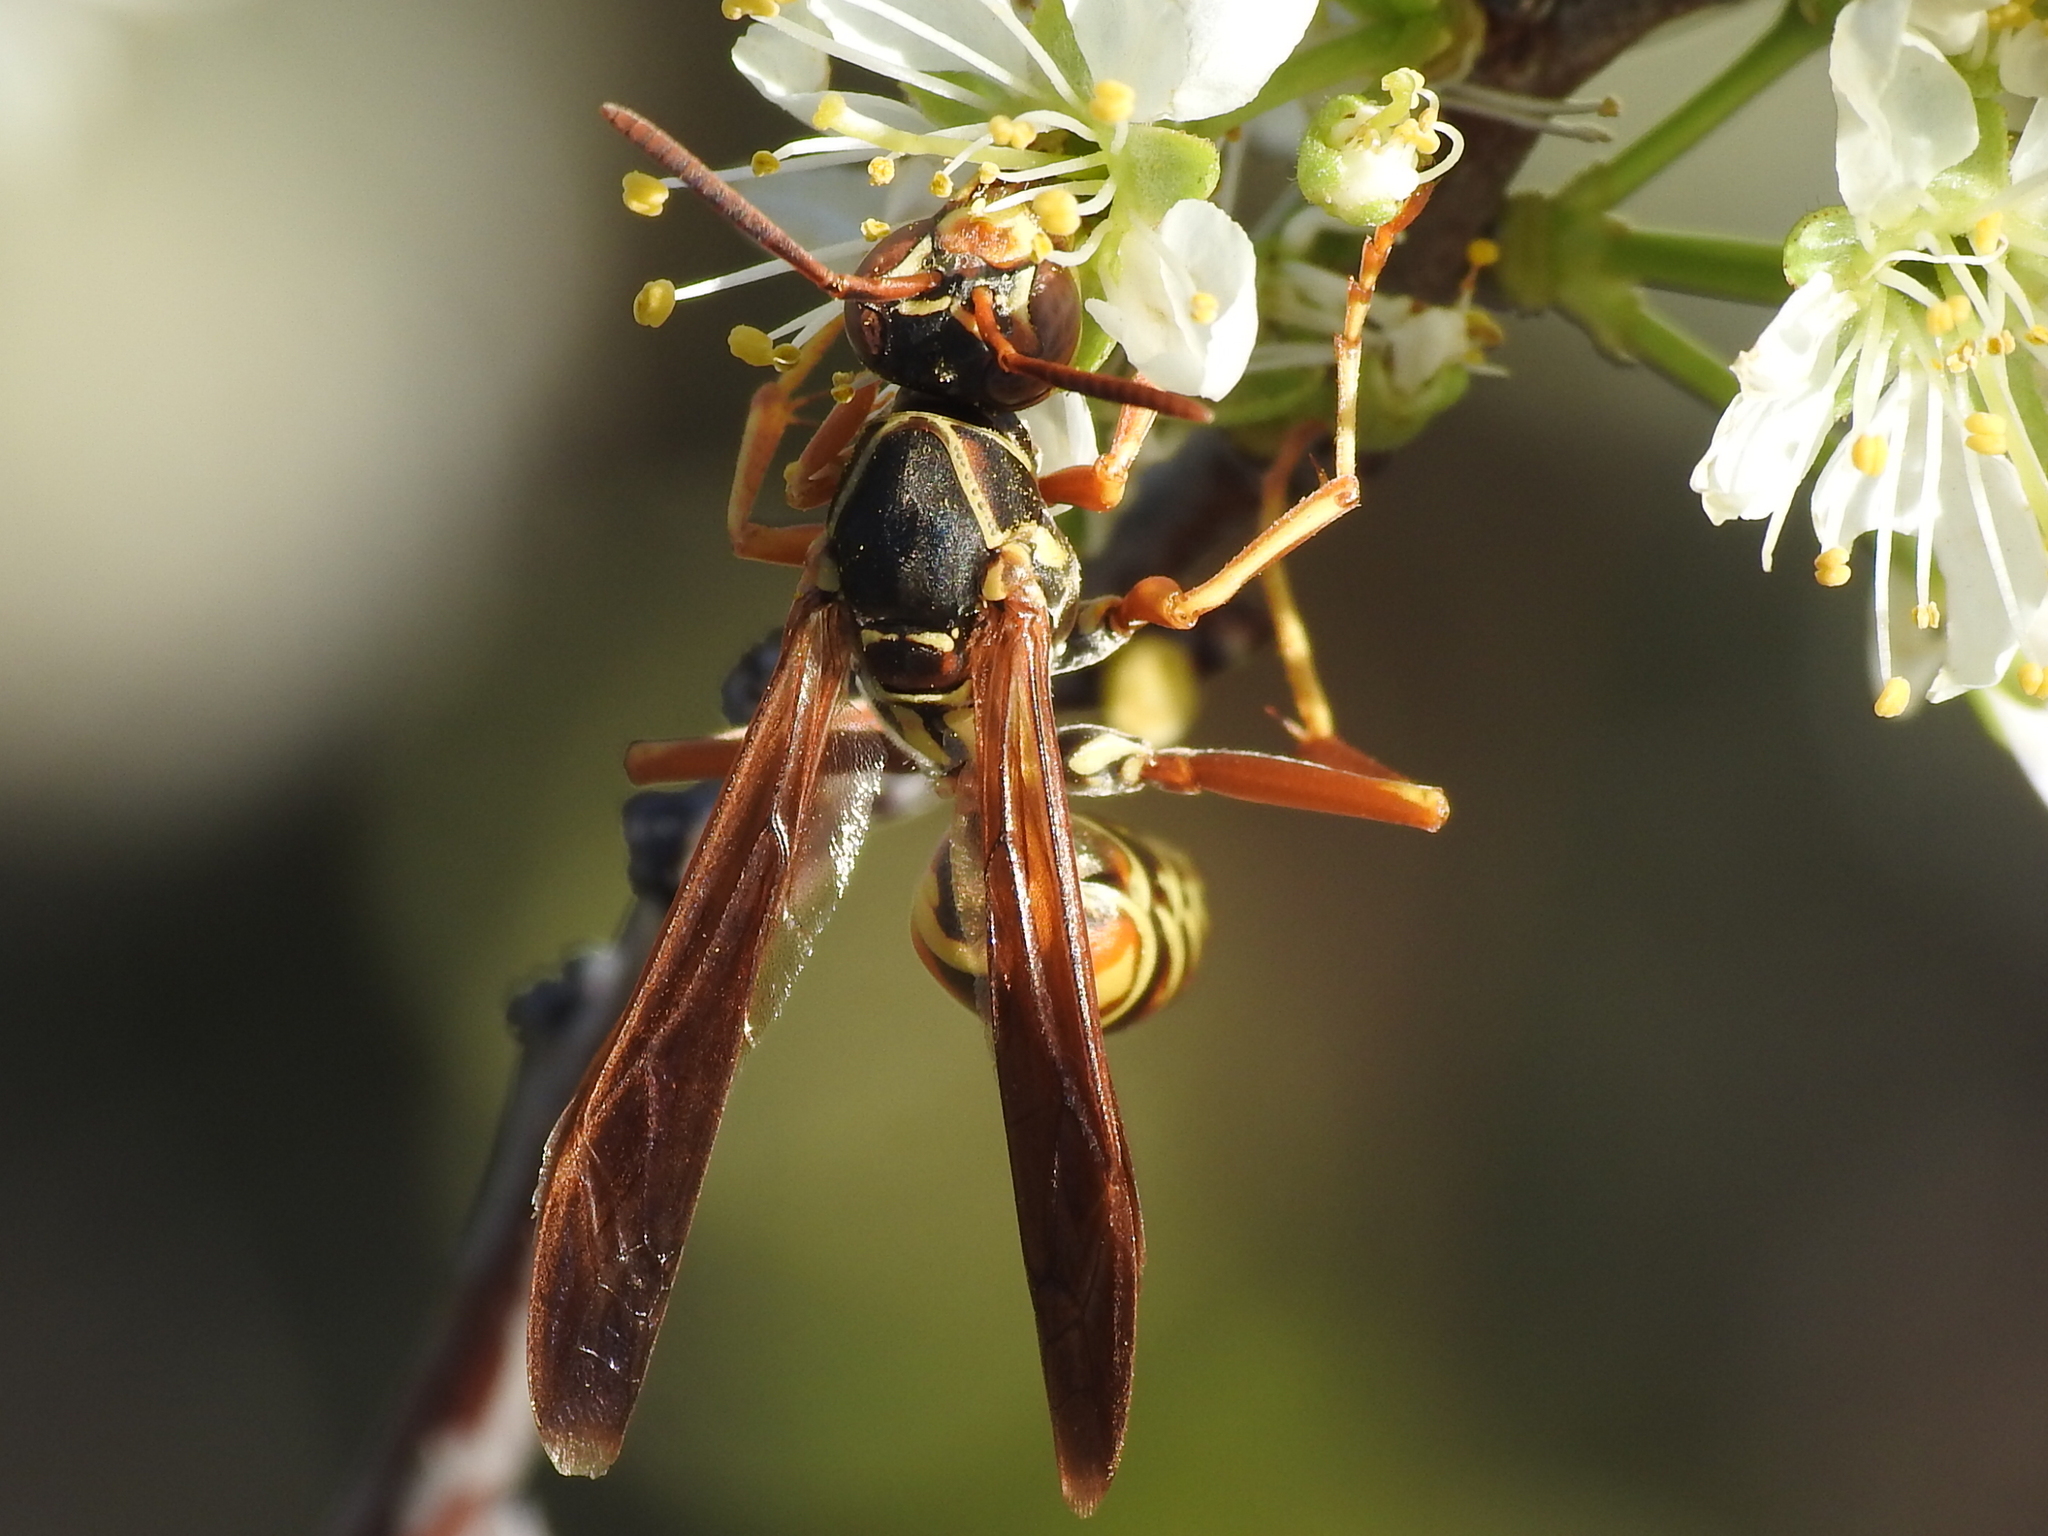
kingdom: Animalia
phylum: Arthropoda
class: Insecta
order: Hymenoptera
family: Eumenidae
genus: Polistes
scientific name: Polistes fuscatus
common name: Dark paper wasp
